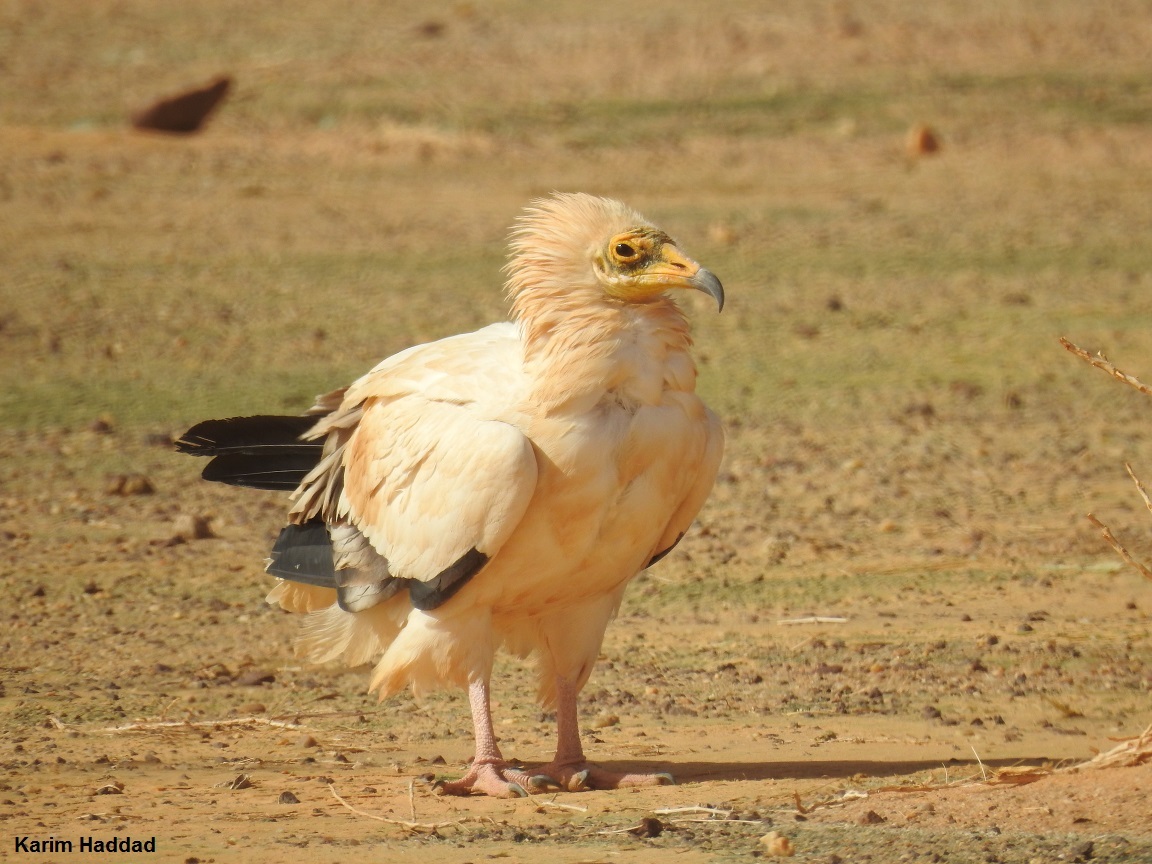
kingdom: Animalia
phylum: Chordata
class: Aves
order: Accipitriformes
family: Accipitridae
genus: Neophron
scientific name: Neophron percnopterus
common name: Egyptian vulture
